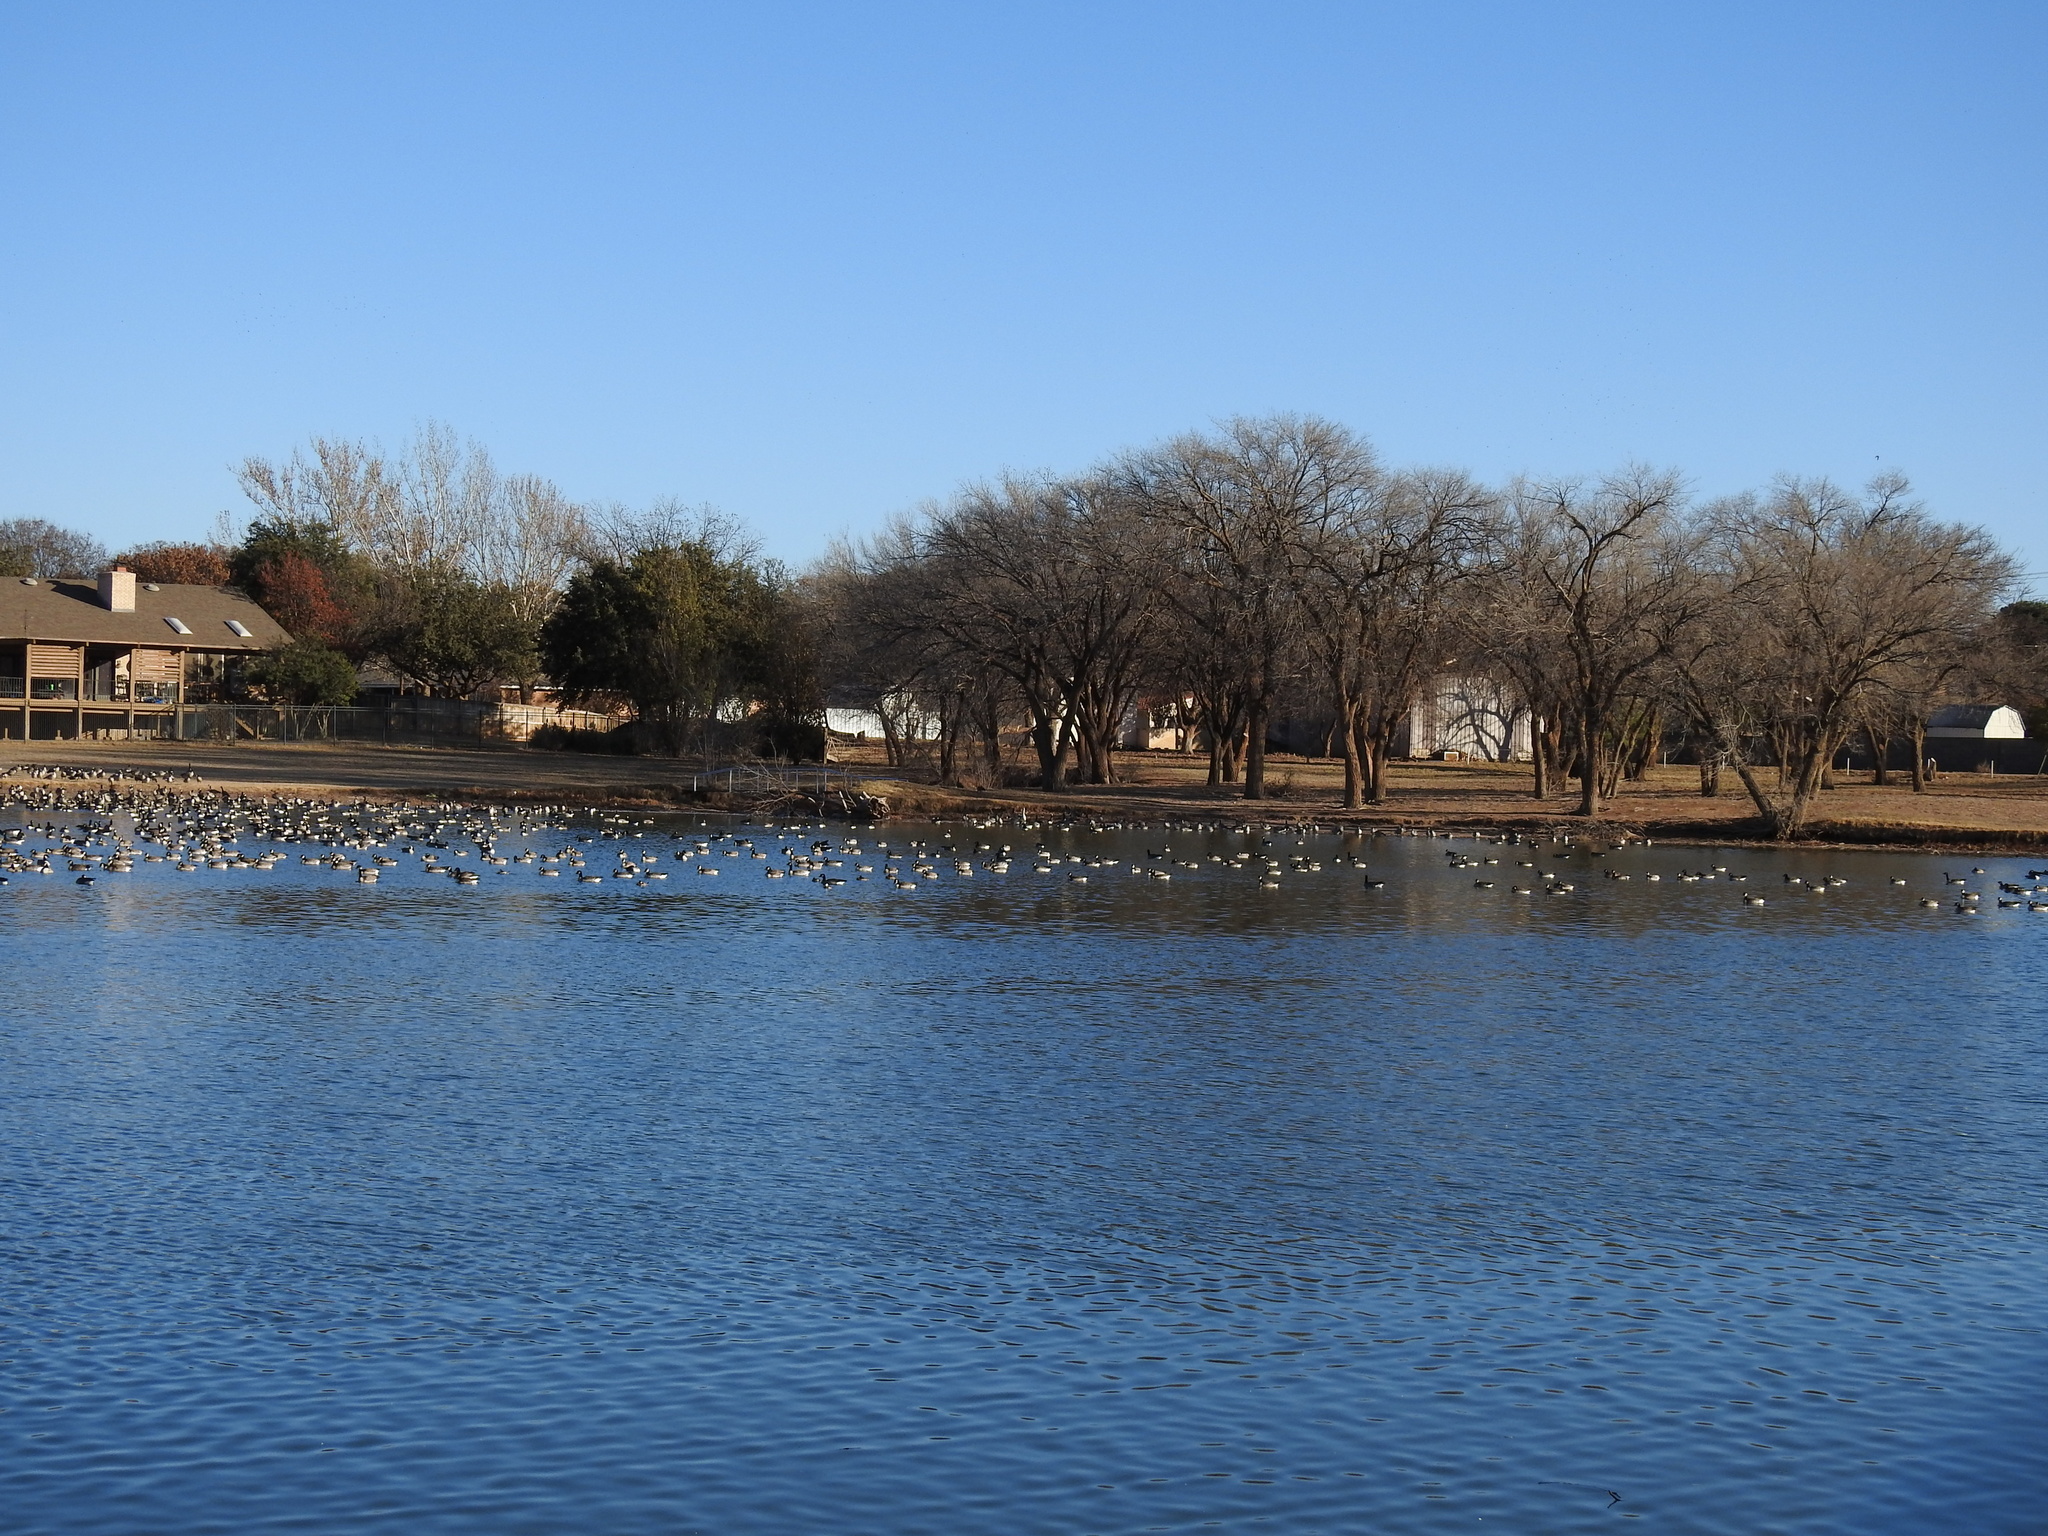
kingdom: Animalia
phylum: Chordata
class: Aves
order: Anseriformes
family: Anatidae
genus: Branta
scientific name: Branta hutchinsii
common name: Cackling goose
